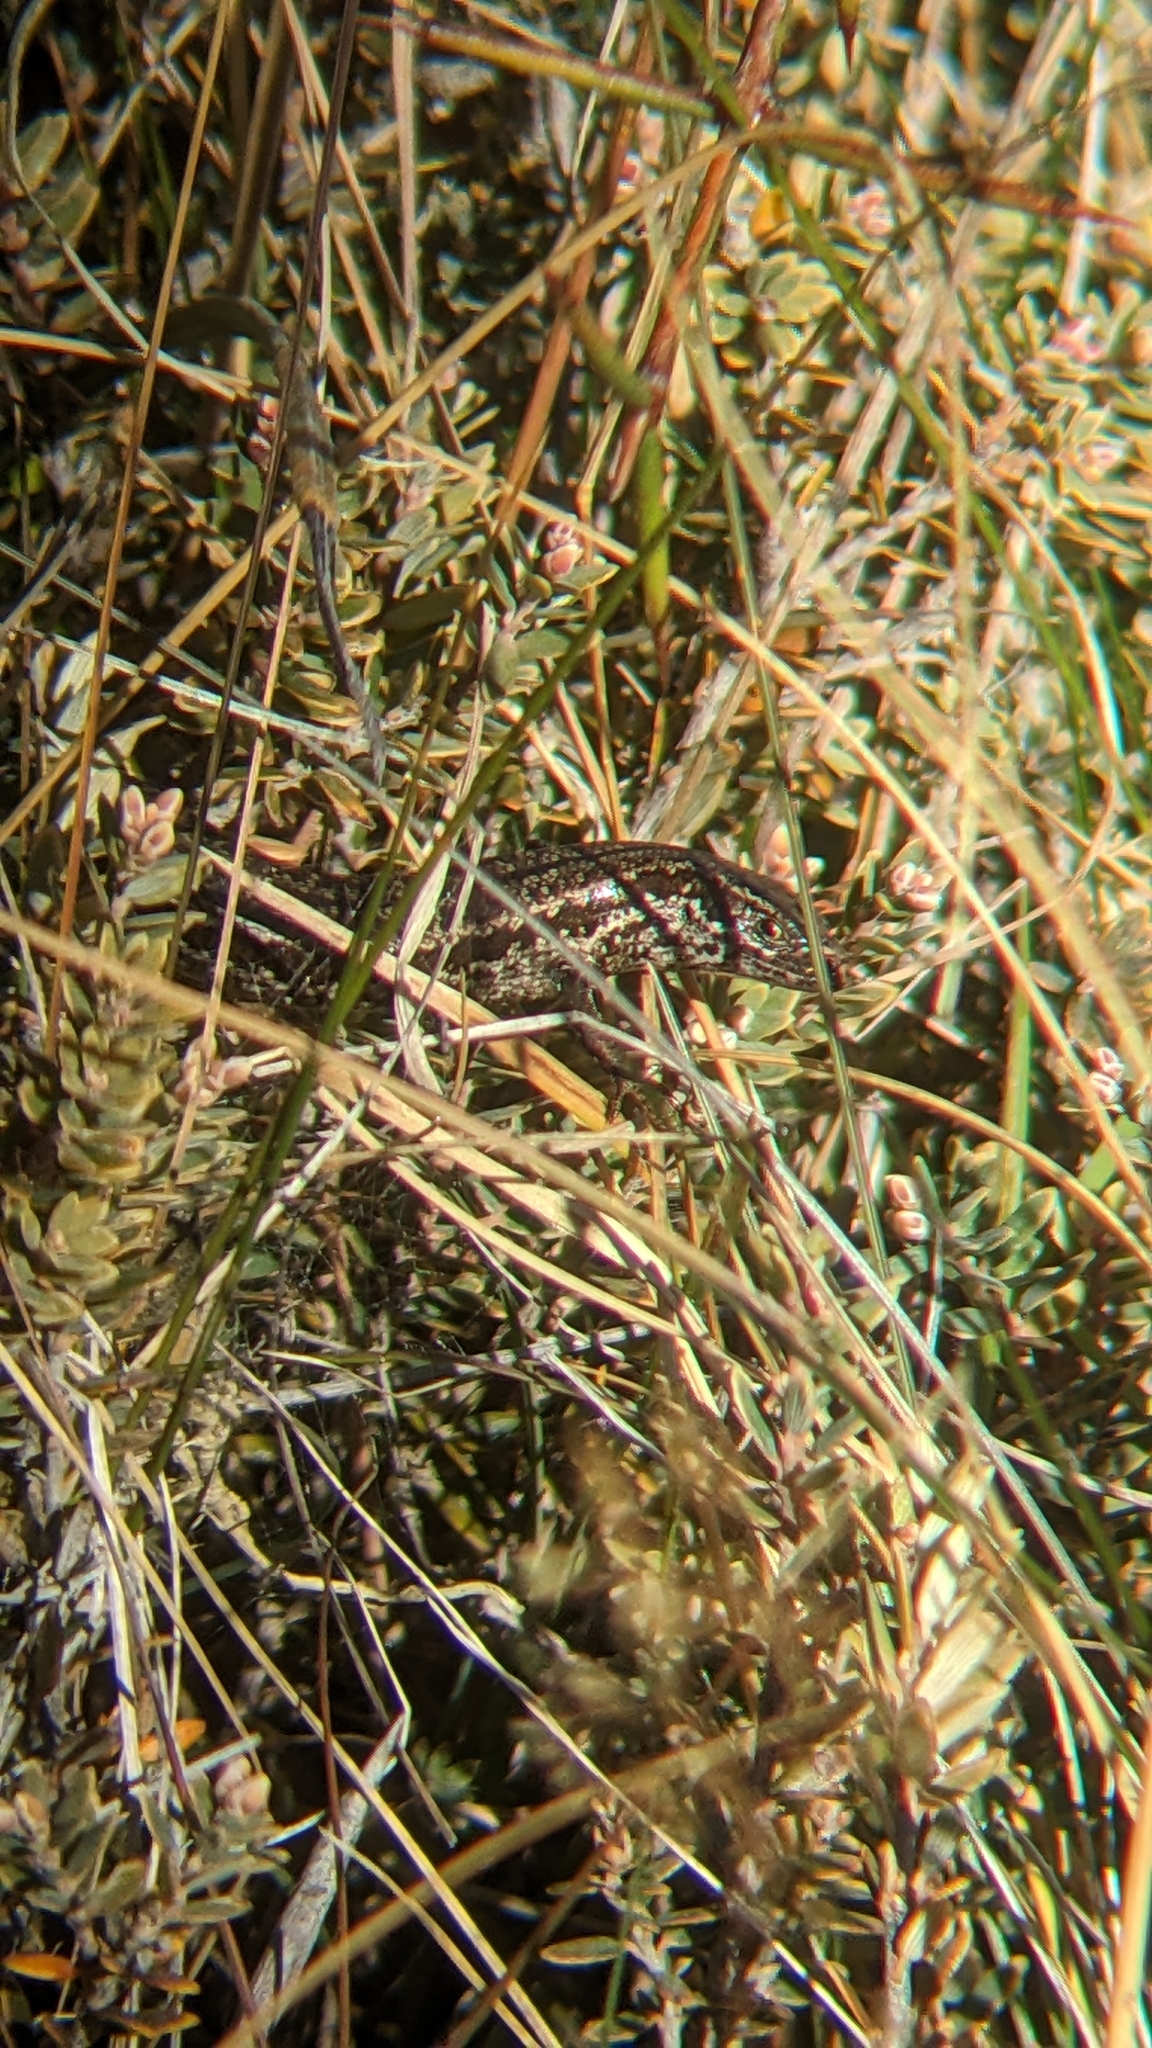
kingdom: Animalia
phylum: Chordata
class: Squamata
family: Scincidae
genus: Oligosoma
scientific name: Oligosoma inconspicuum
